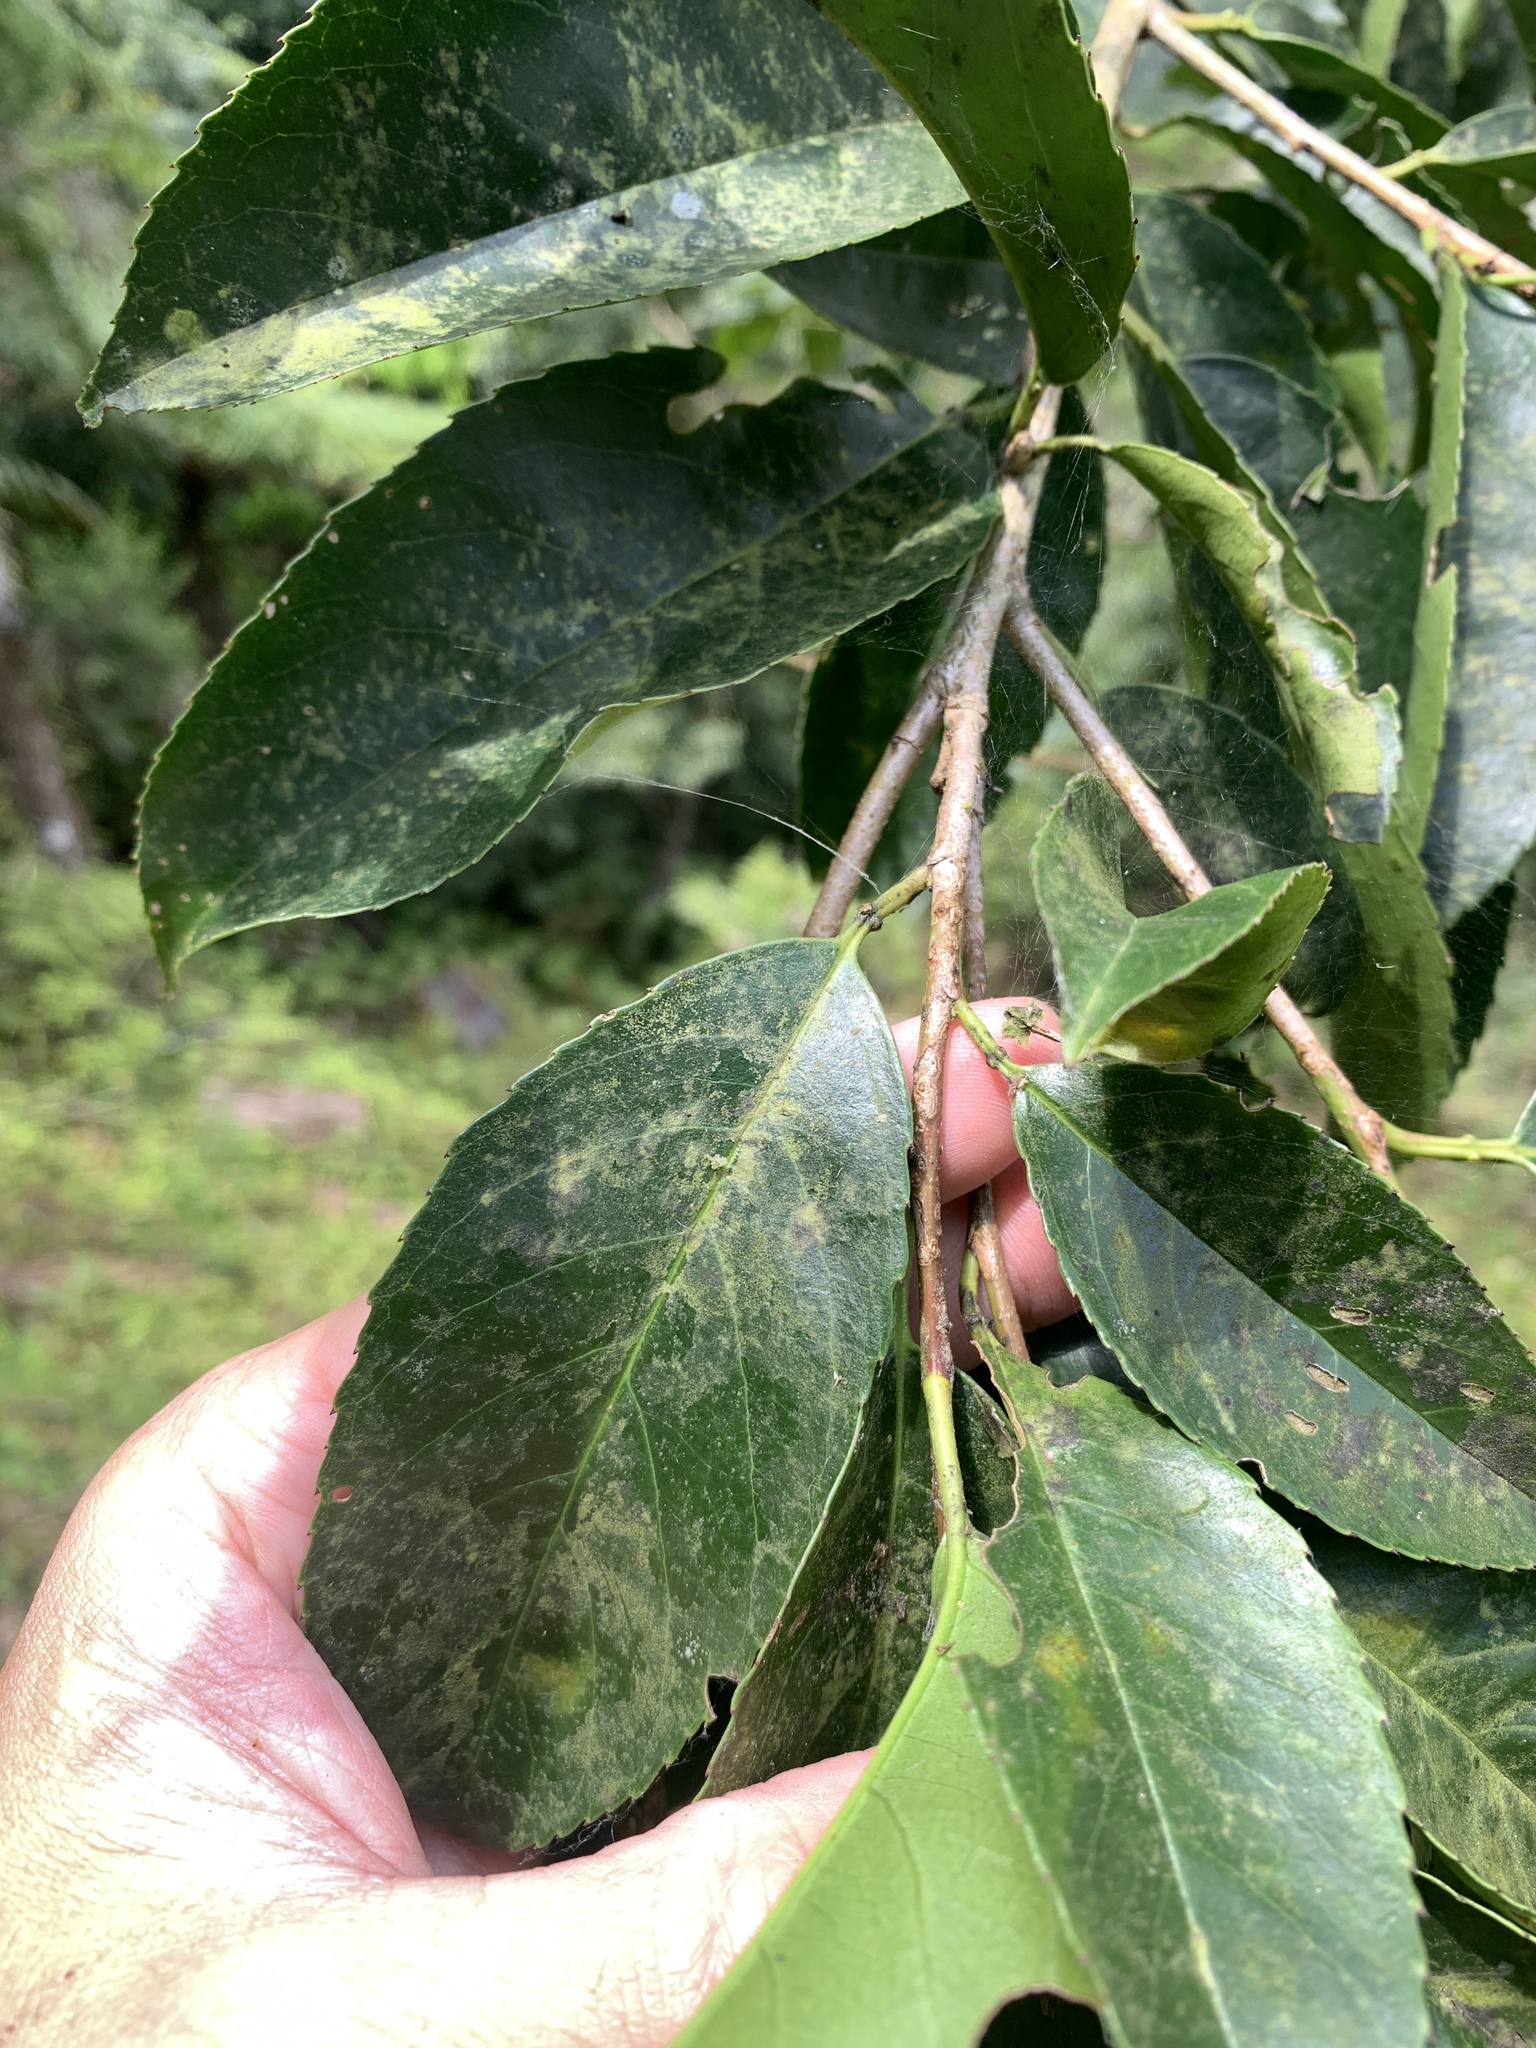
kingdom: Plantae
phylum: Tracheophyta
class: Magnoliopsida
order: Rosales
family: Rosaceae
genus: Prunus
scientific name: Prunus zippeliana
